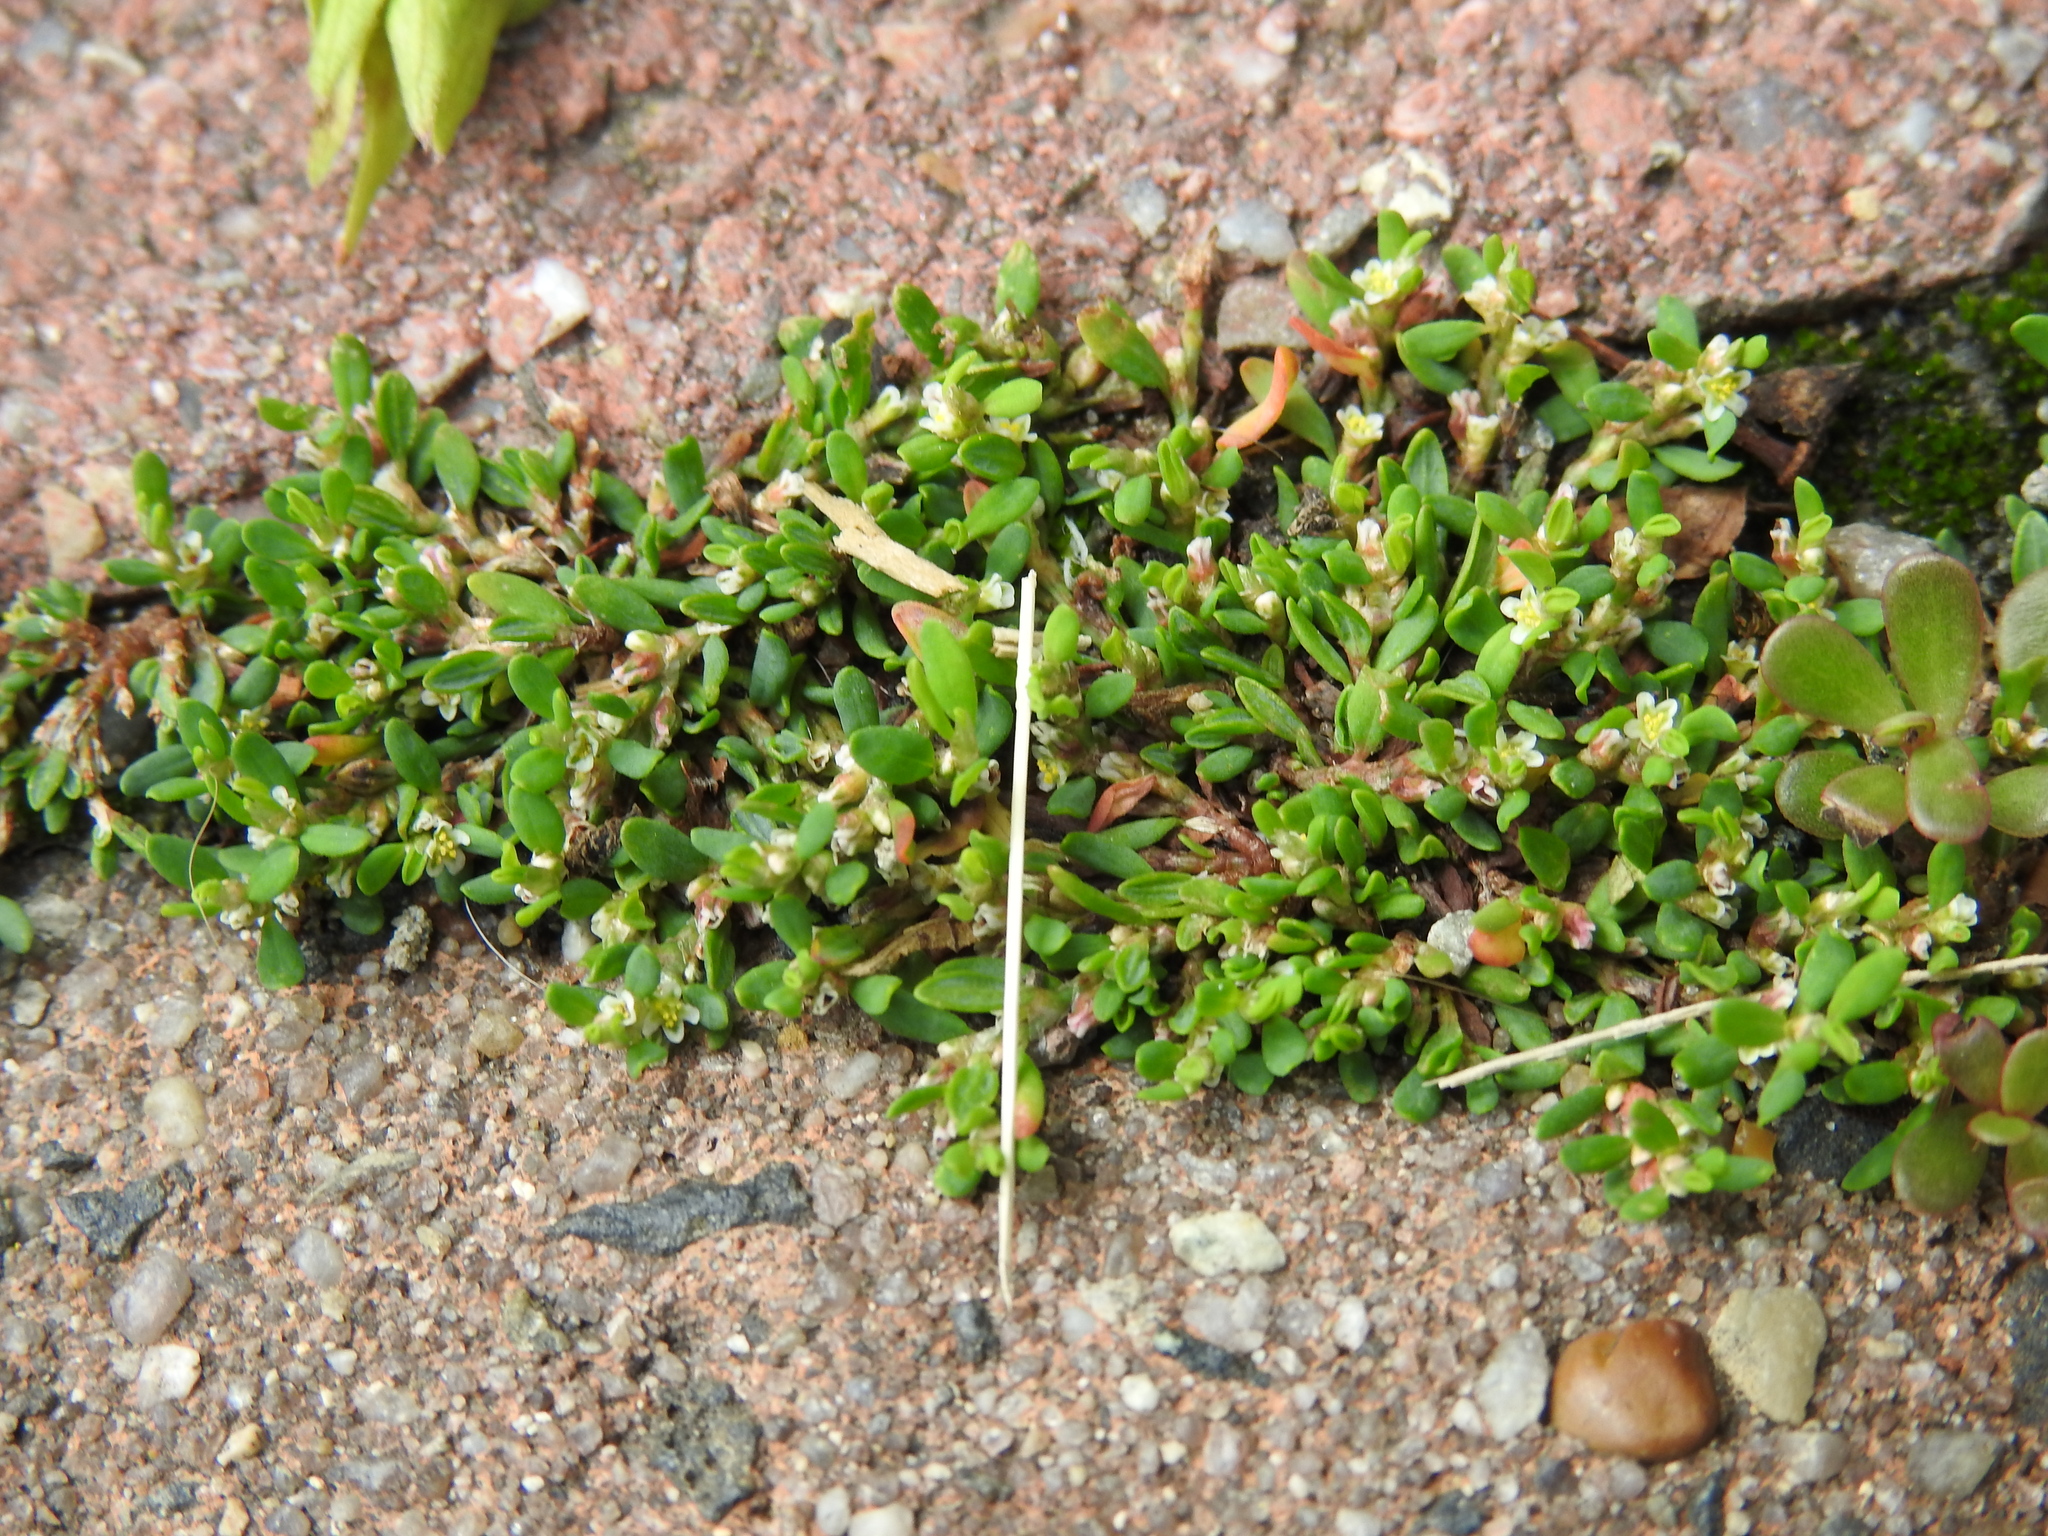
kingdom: Plantae
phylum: Tracheophyta
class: Magnoliopsida
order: Caryophyllales
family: Polygonaceae
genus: Polygonum
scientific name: Polygonum arenastrum
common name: Equal-leaved knotgrass
